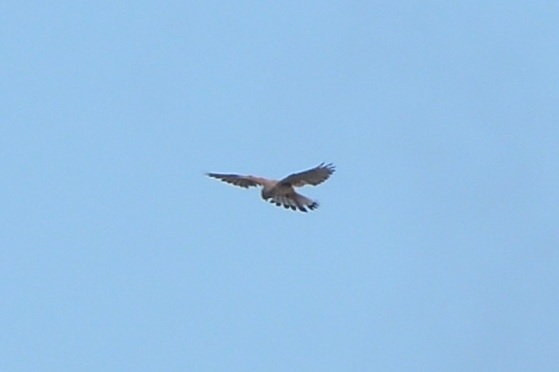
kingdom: Animalia
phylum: Chordata
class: Aves
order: Falconiformes
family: Falconidae
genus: Falco
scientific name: Falco tinnunculus
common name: Common kestrel
